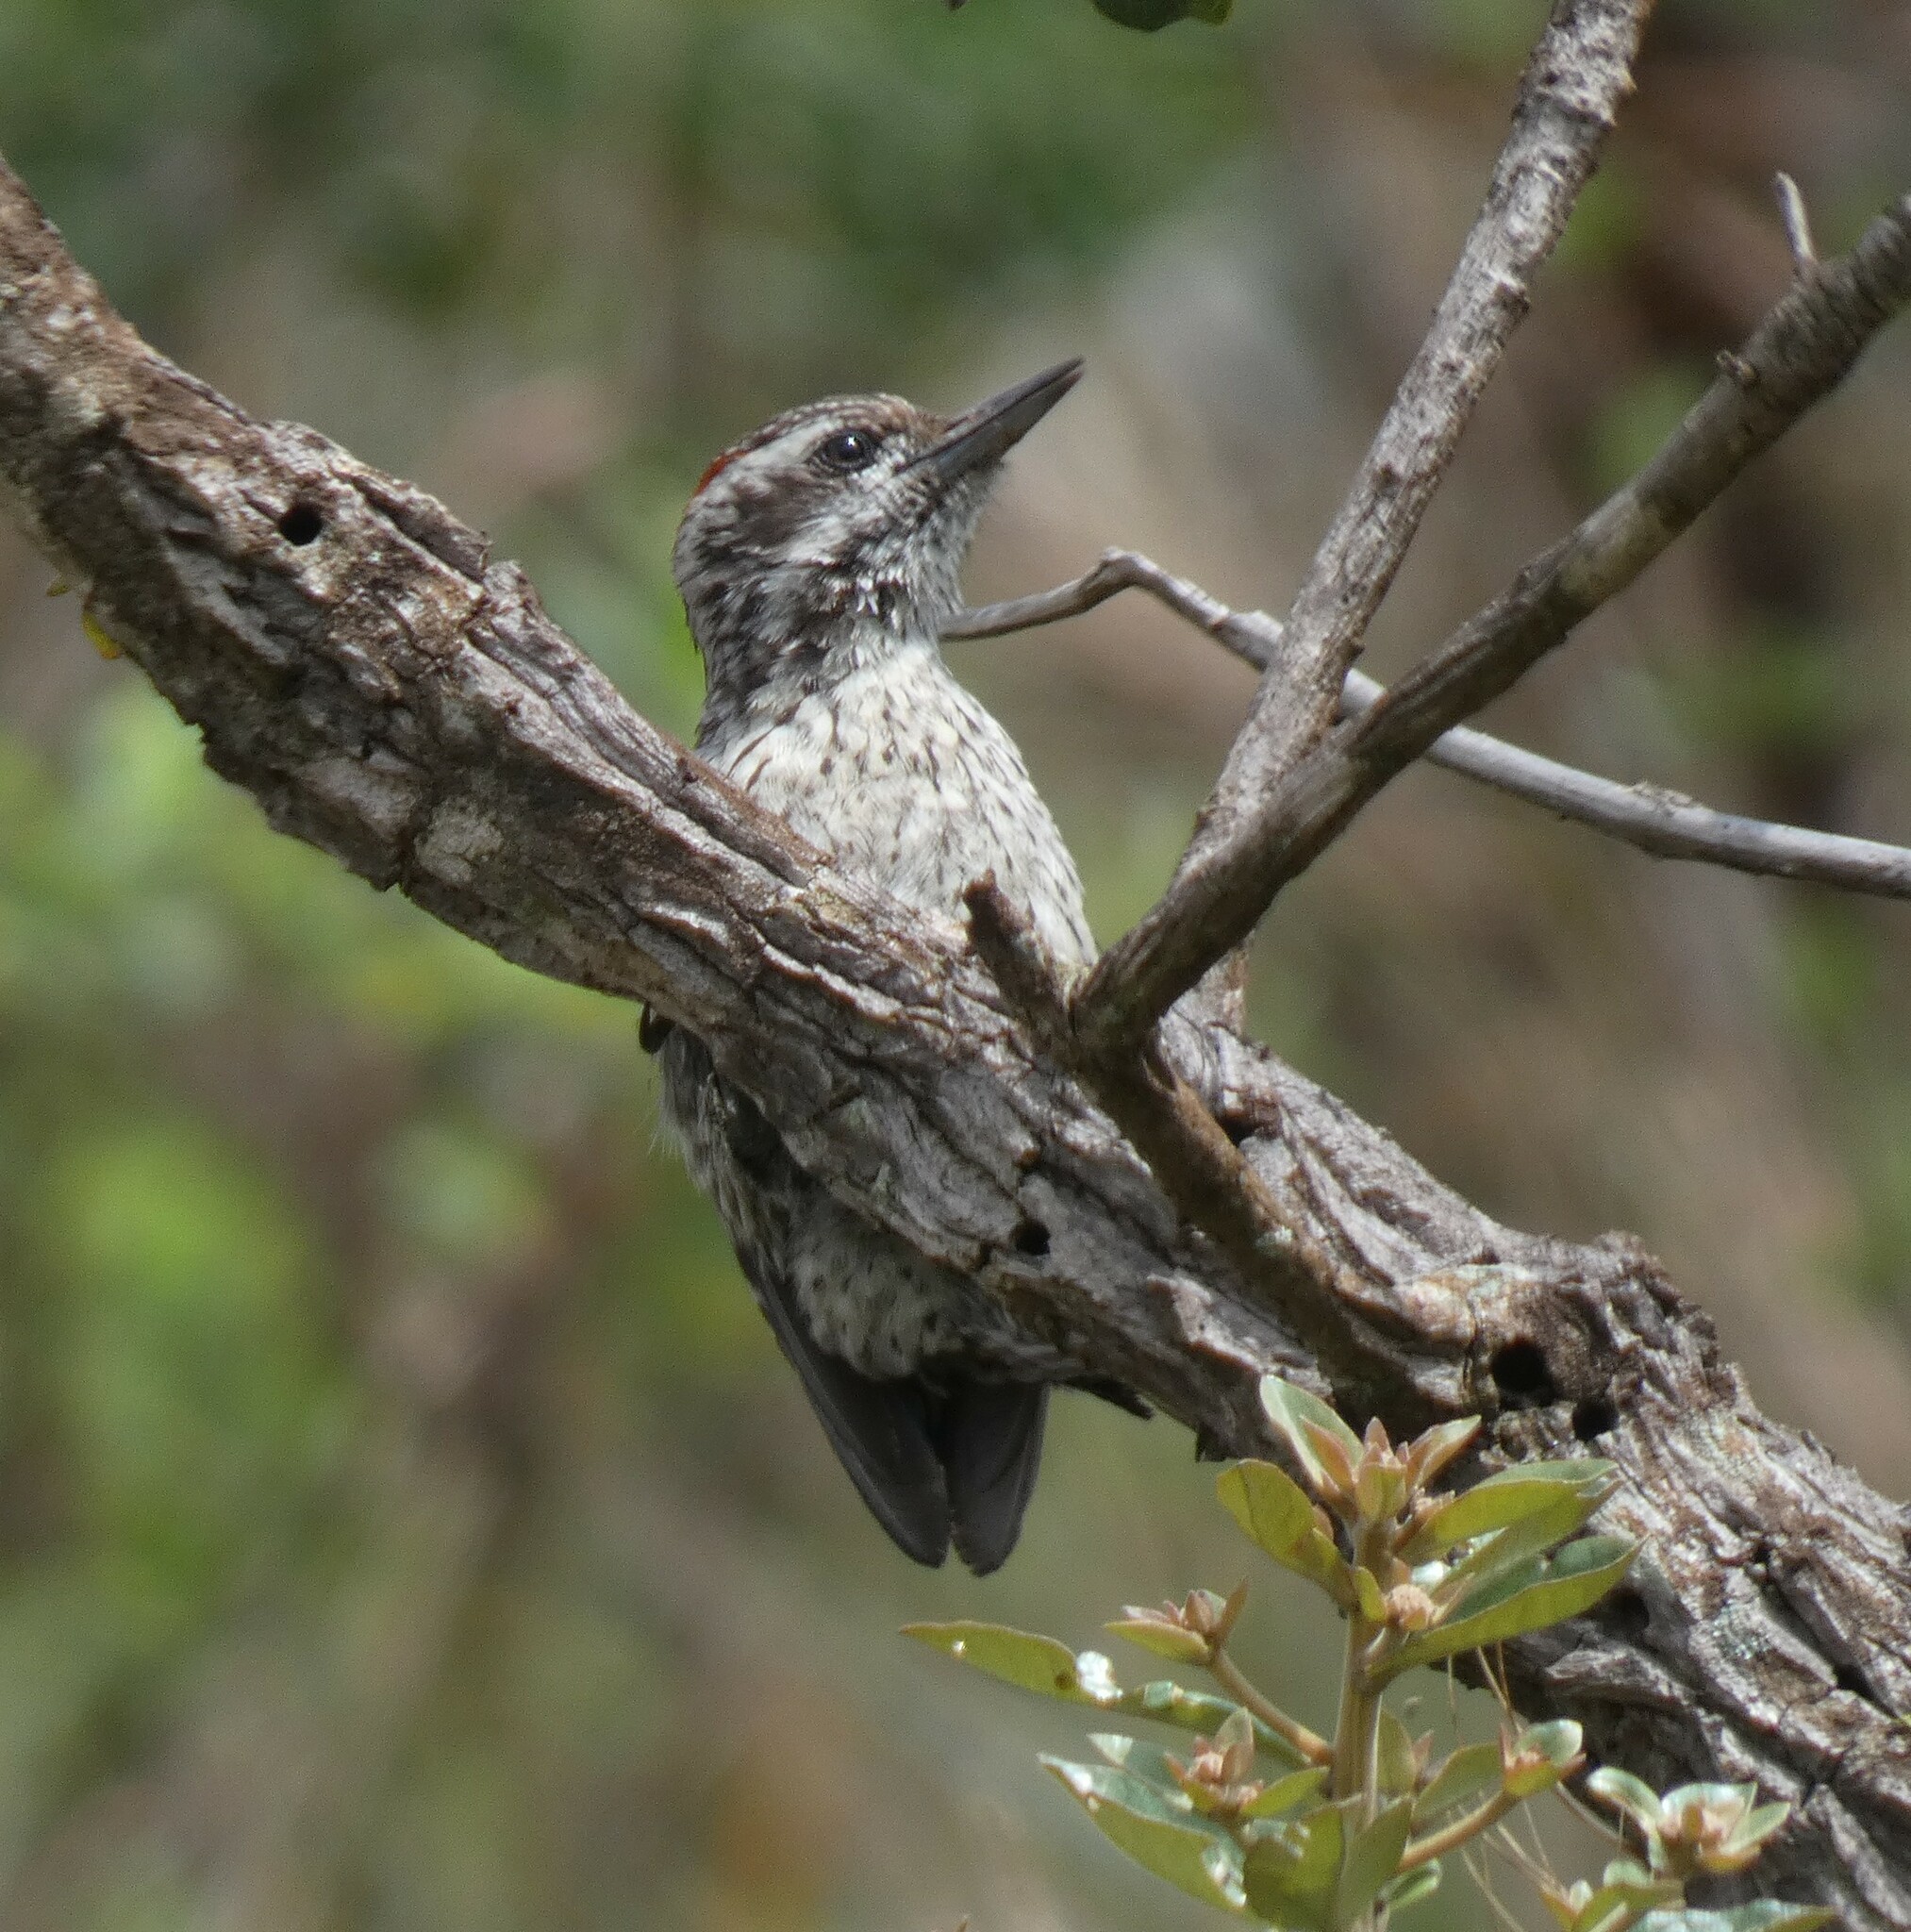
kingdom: Animalia
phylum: Chordata
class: Aves
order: Piciformes
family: Picidae
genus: Veniliornis
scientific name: Veniliornis mixtus
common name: Checkered woodpecker
